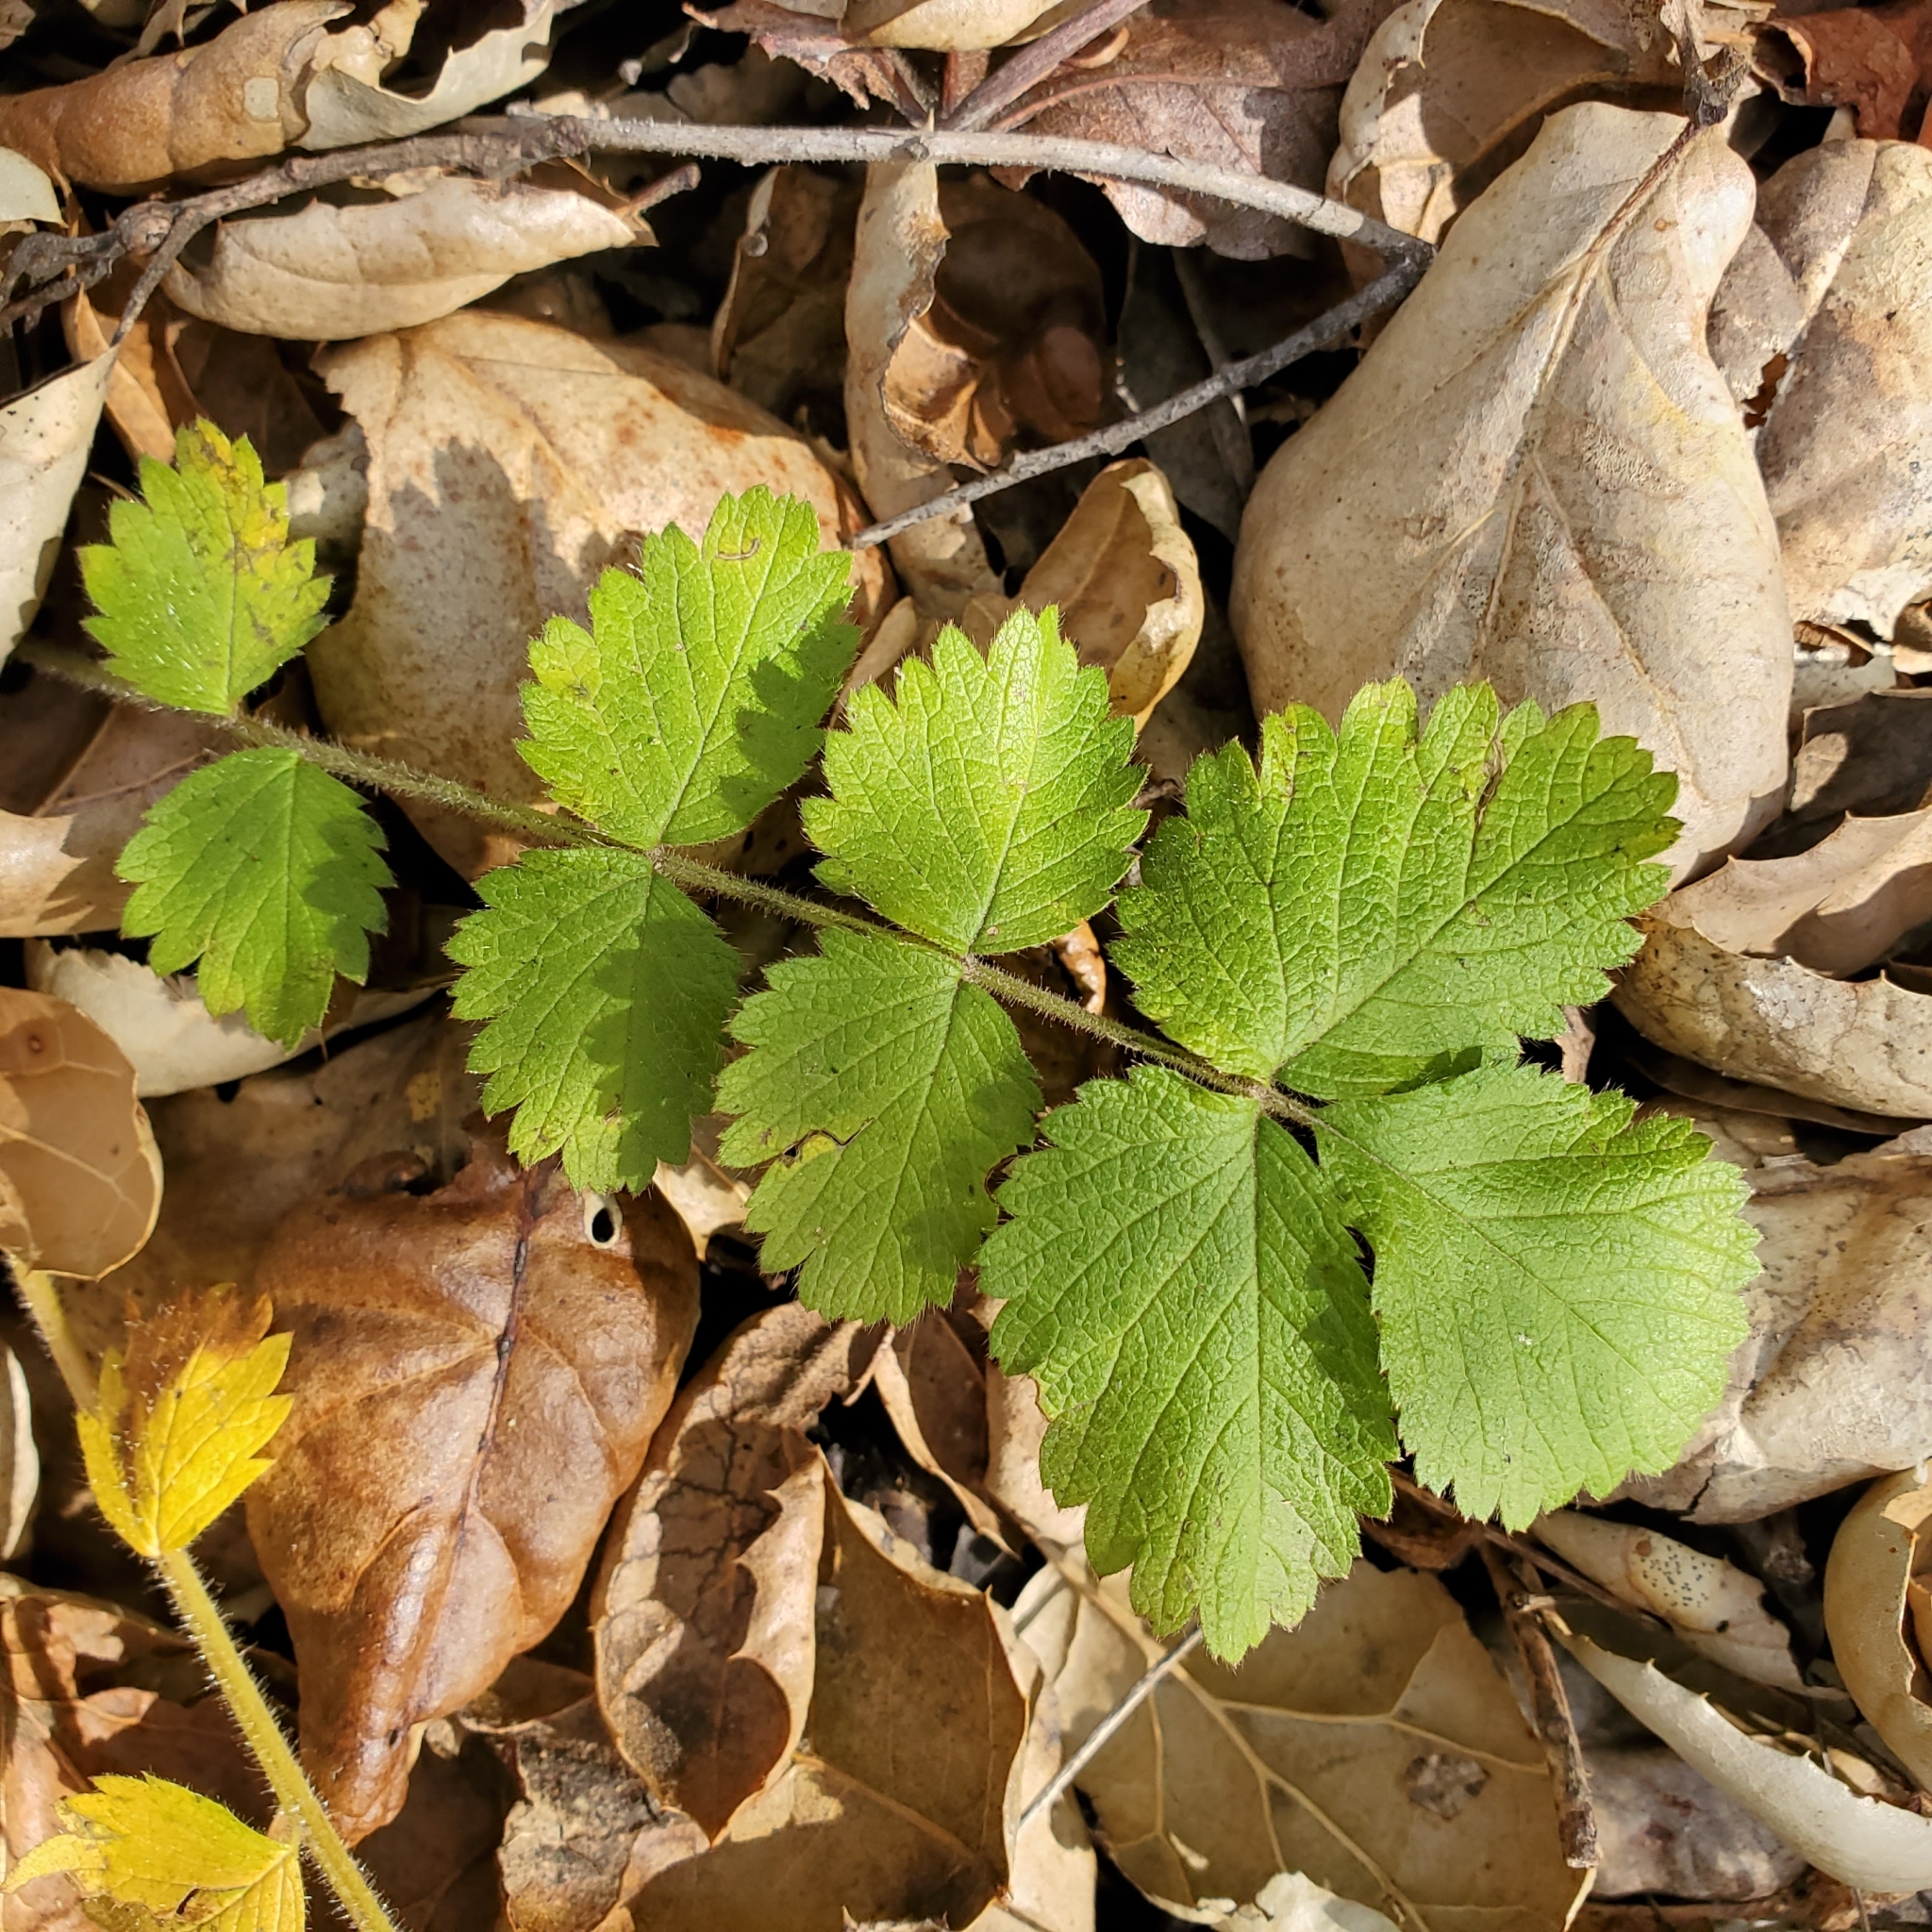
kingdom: Plantae
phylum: Tracheophyta
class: Magnoliopsida
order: Rosales
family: Rosaceae
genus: Drymocallis
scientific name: Drymocallis glandulosa
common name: Sticky cinquefoil
